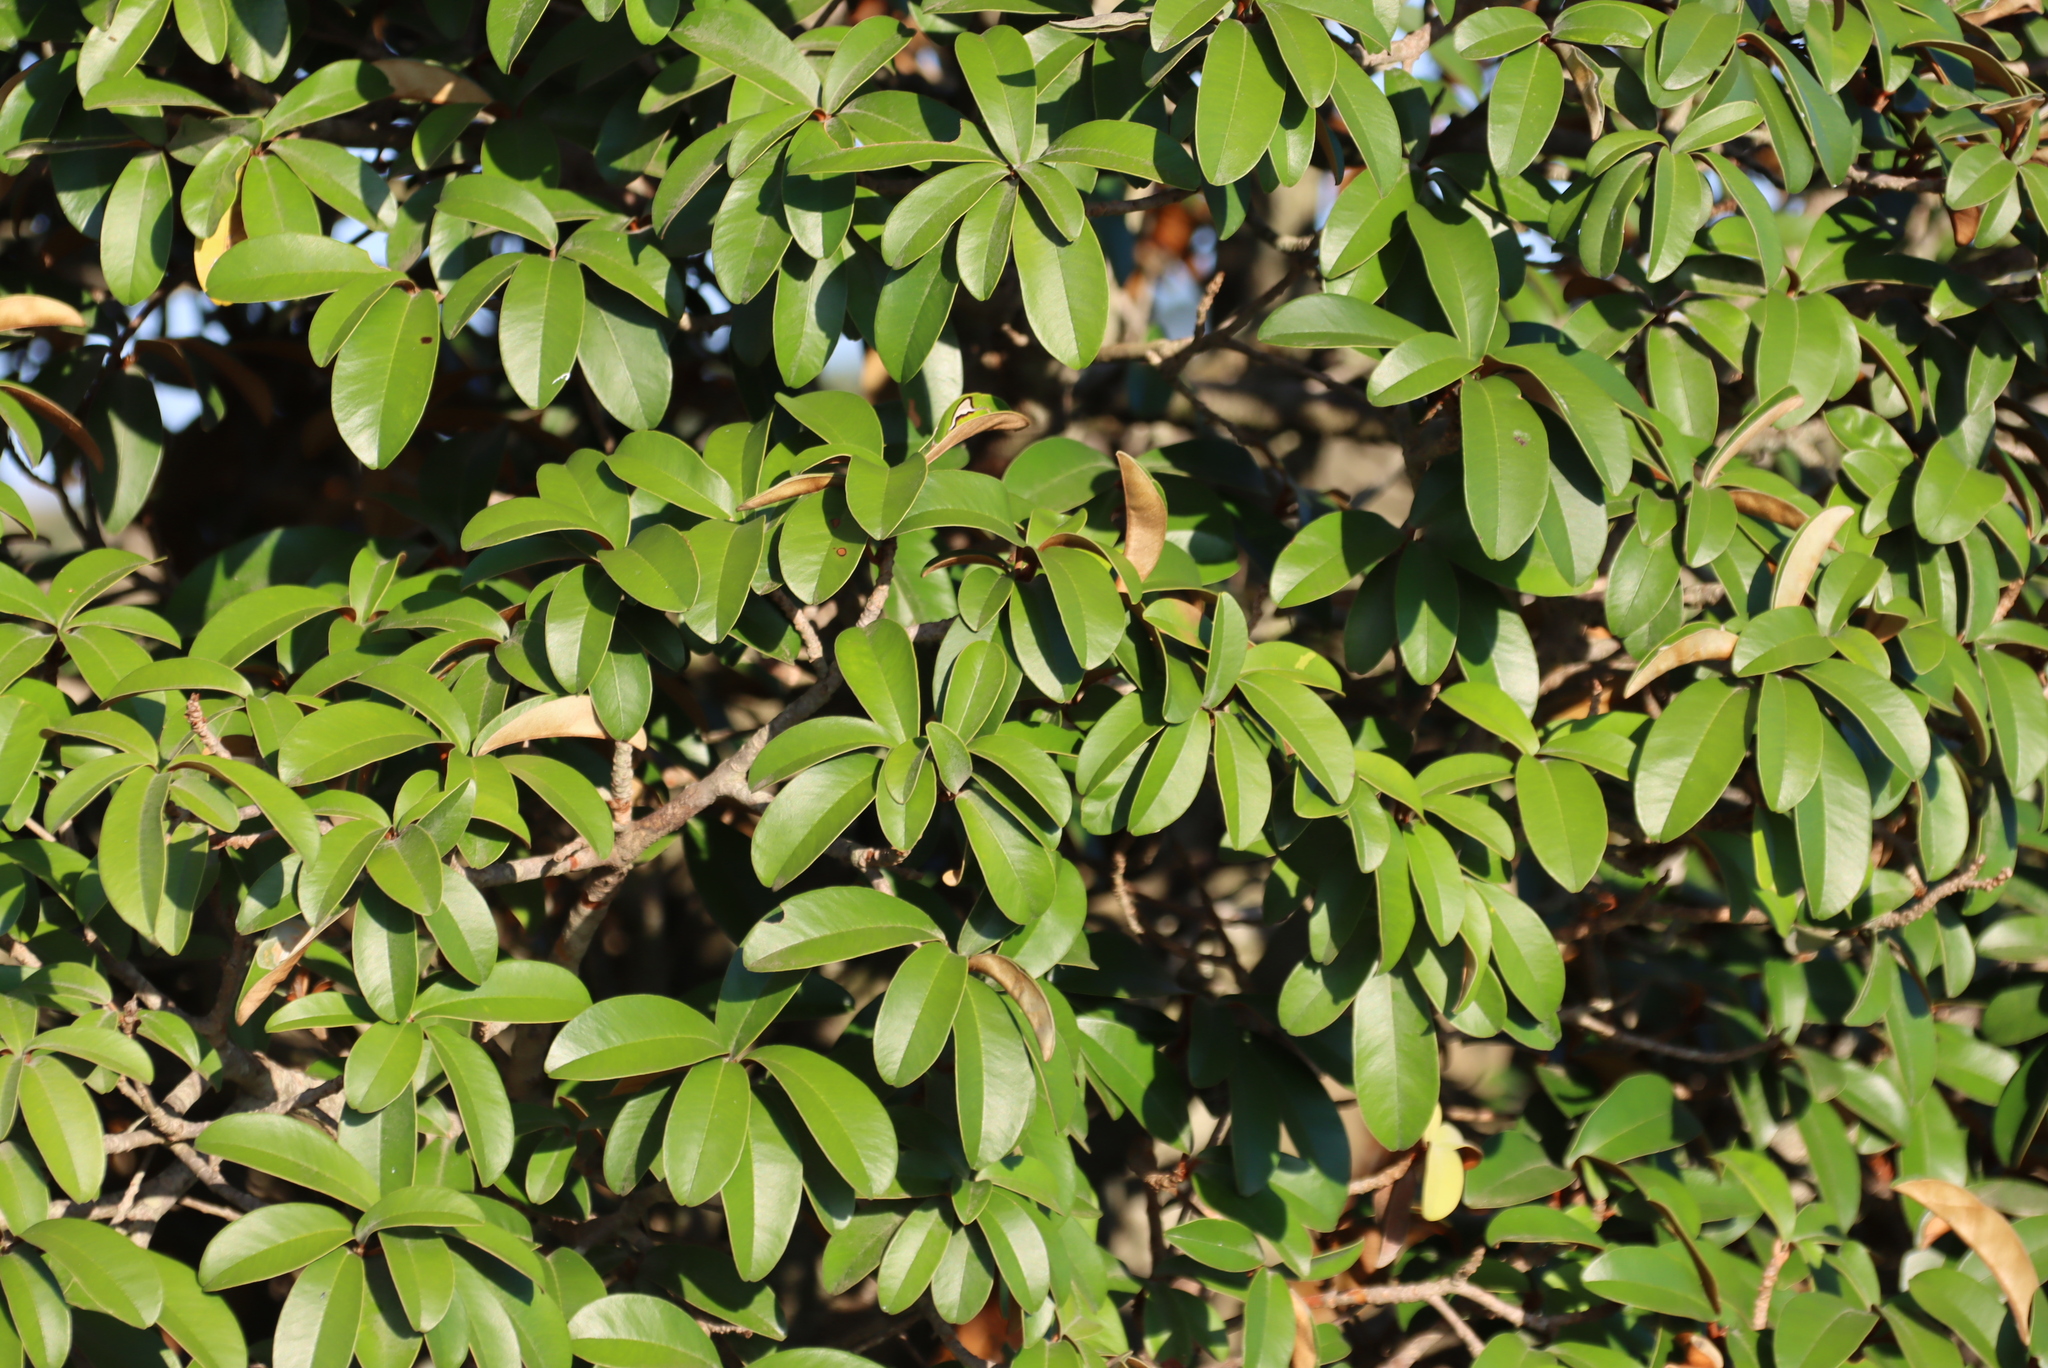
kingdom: Plantae
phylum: Tracheophyta
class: Magnoliopsida
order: Ericales
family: Sapotaceae
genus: Englerophytum
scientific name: Englerophytum magalismontanum
